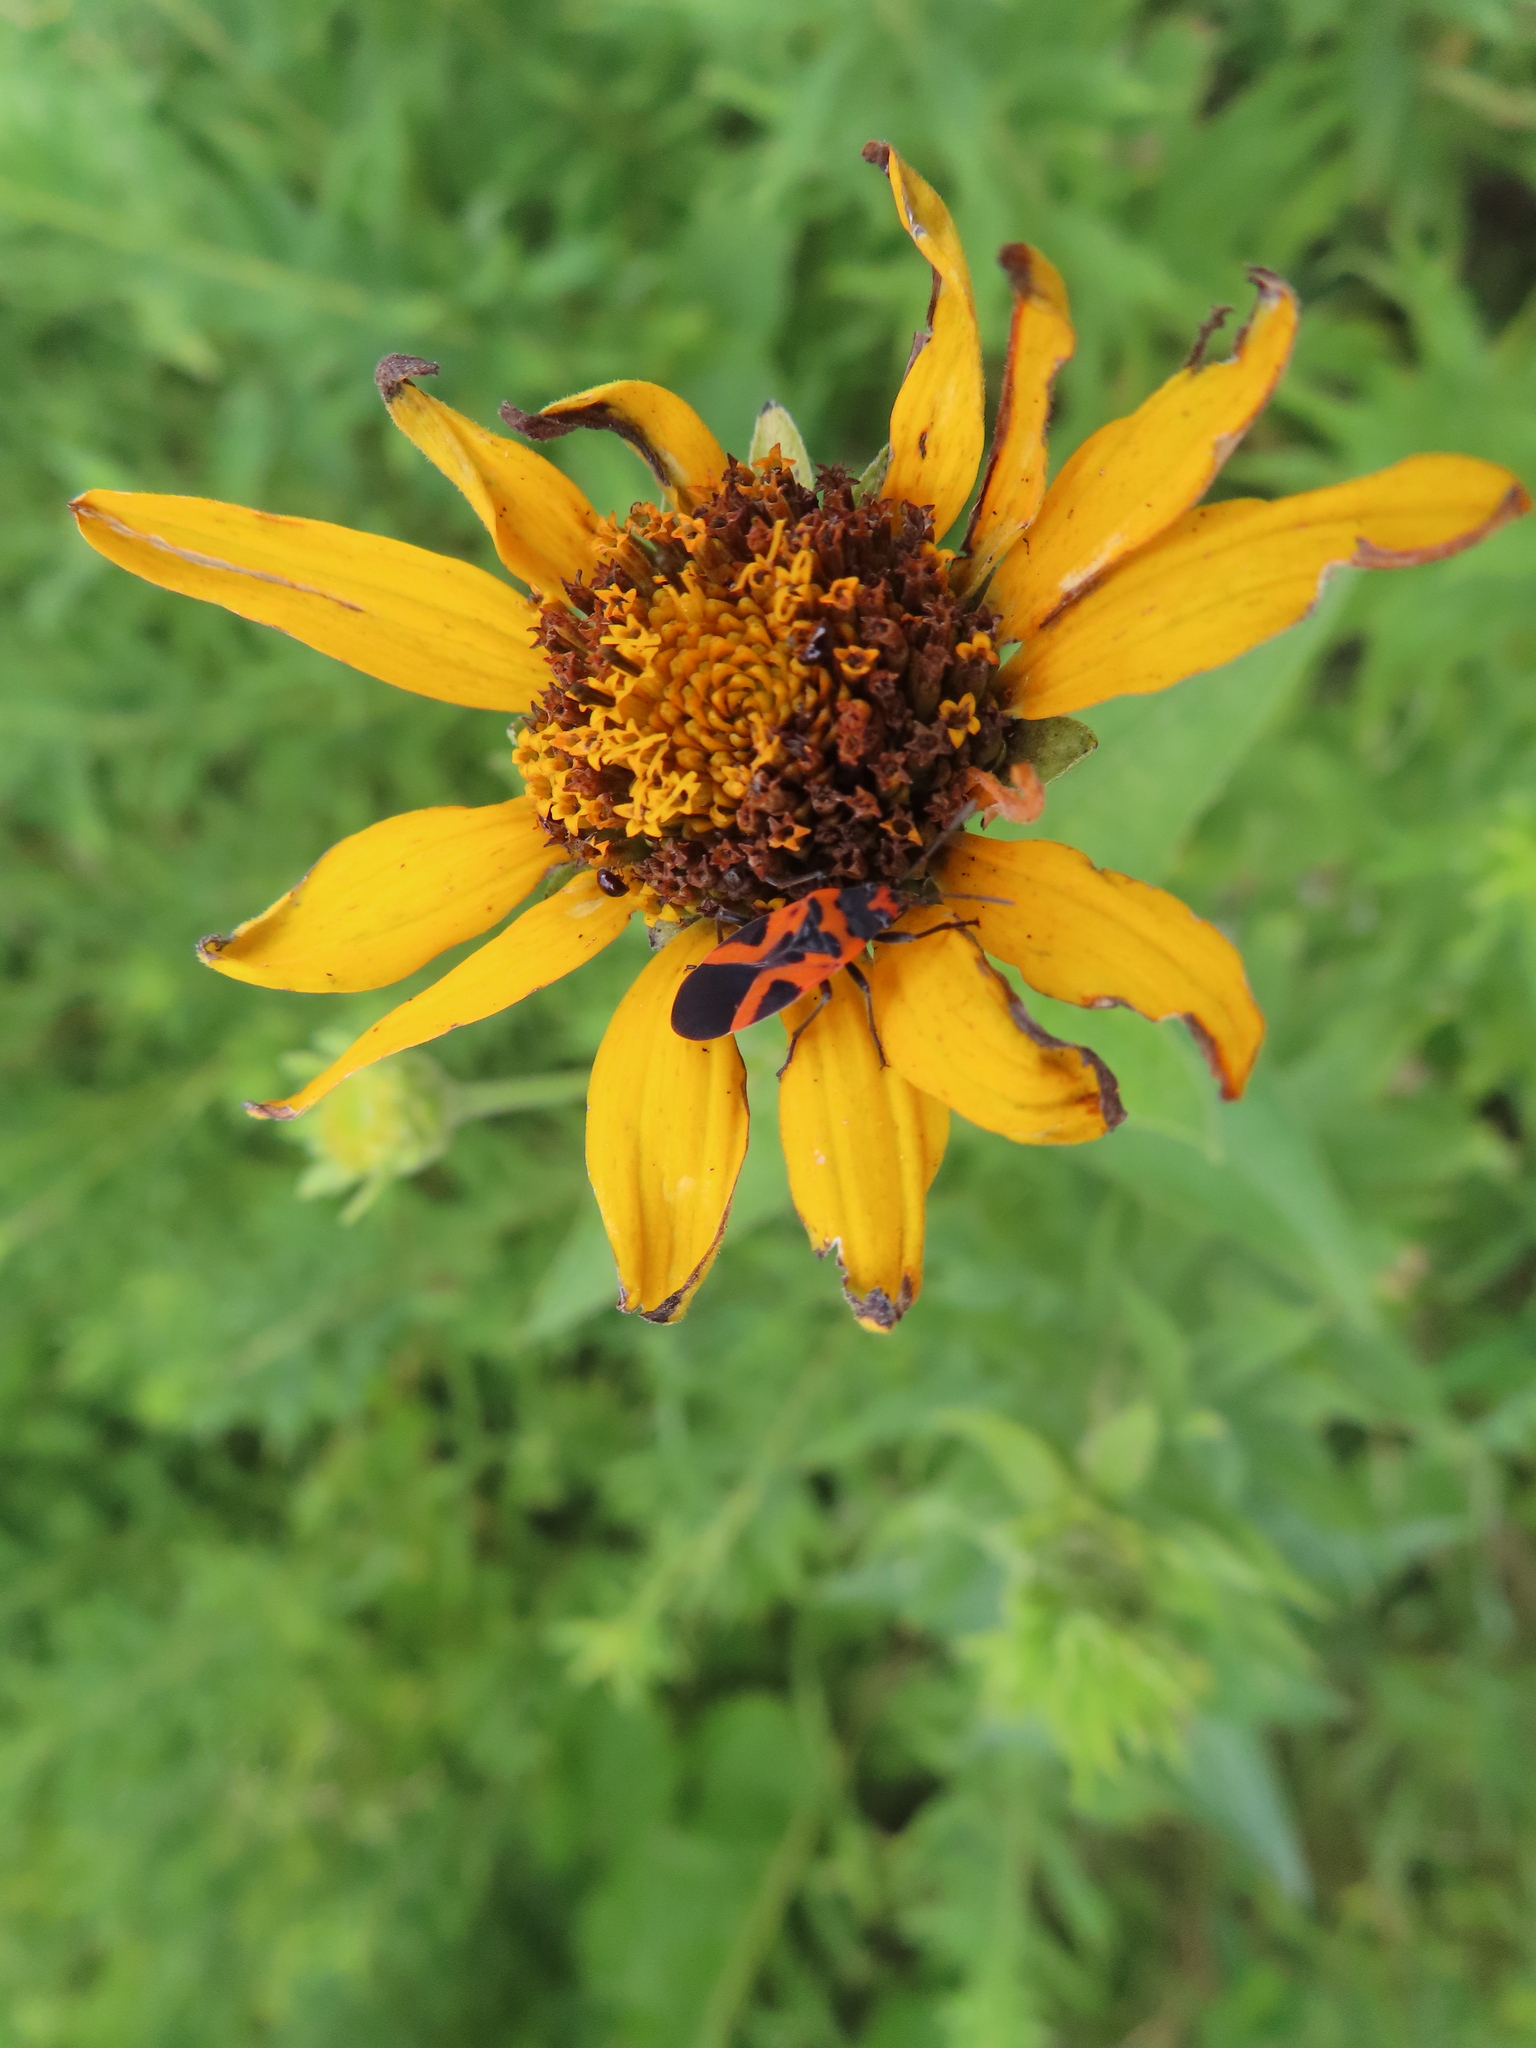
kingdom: Animalia
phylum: Arthropoda
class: Insecta
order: Hemiptera
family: Lygaeidae
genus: Lygaeus
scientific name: Lygaeus turcicus
